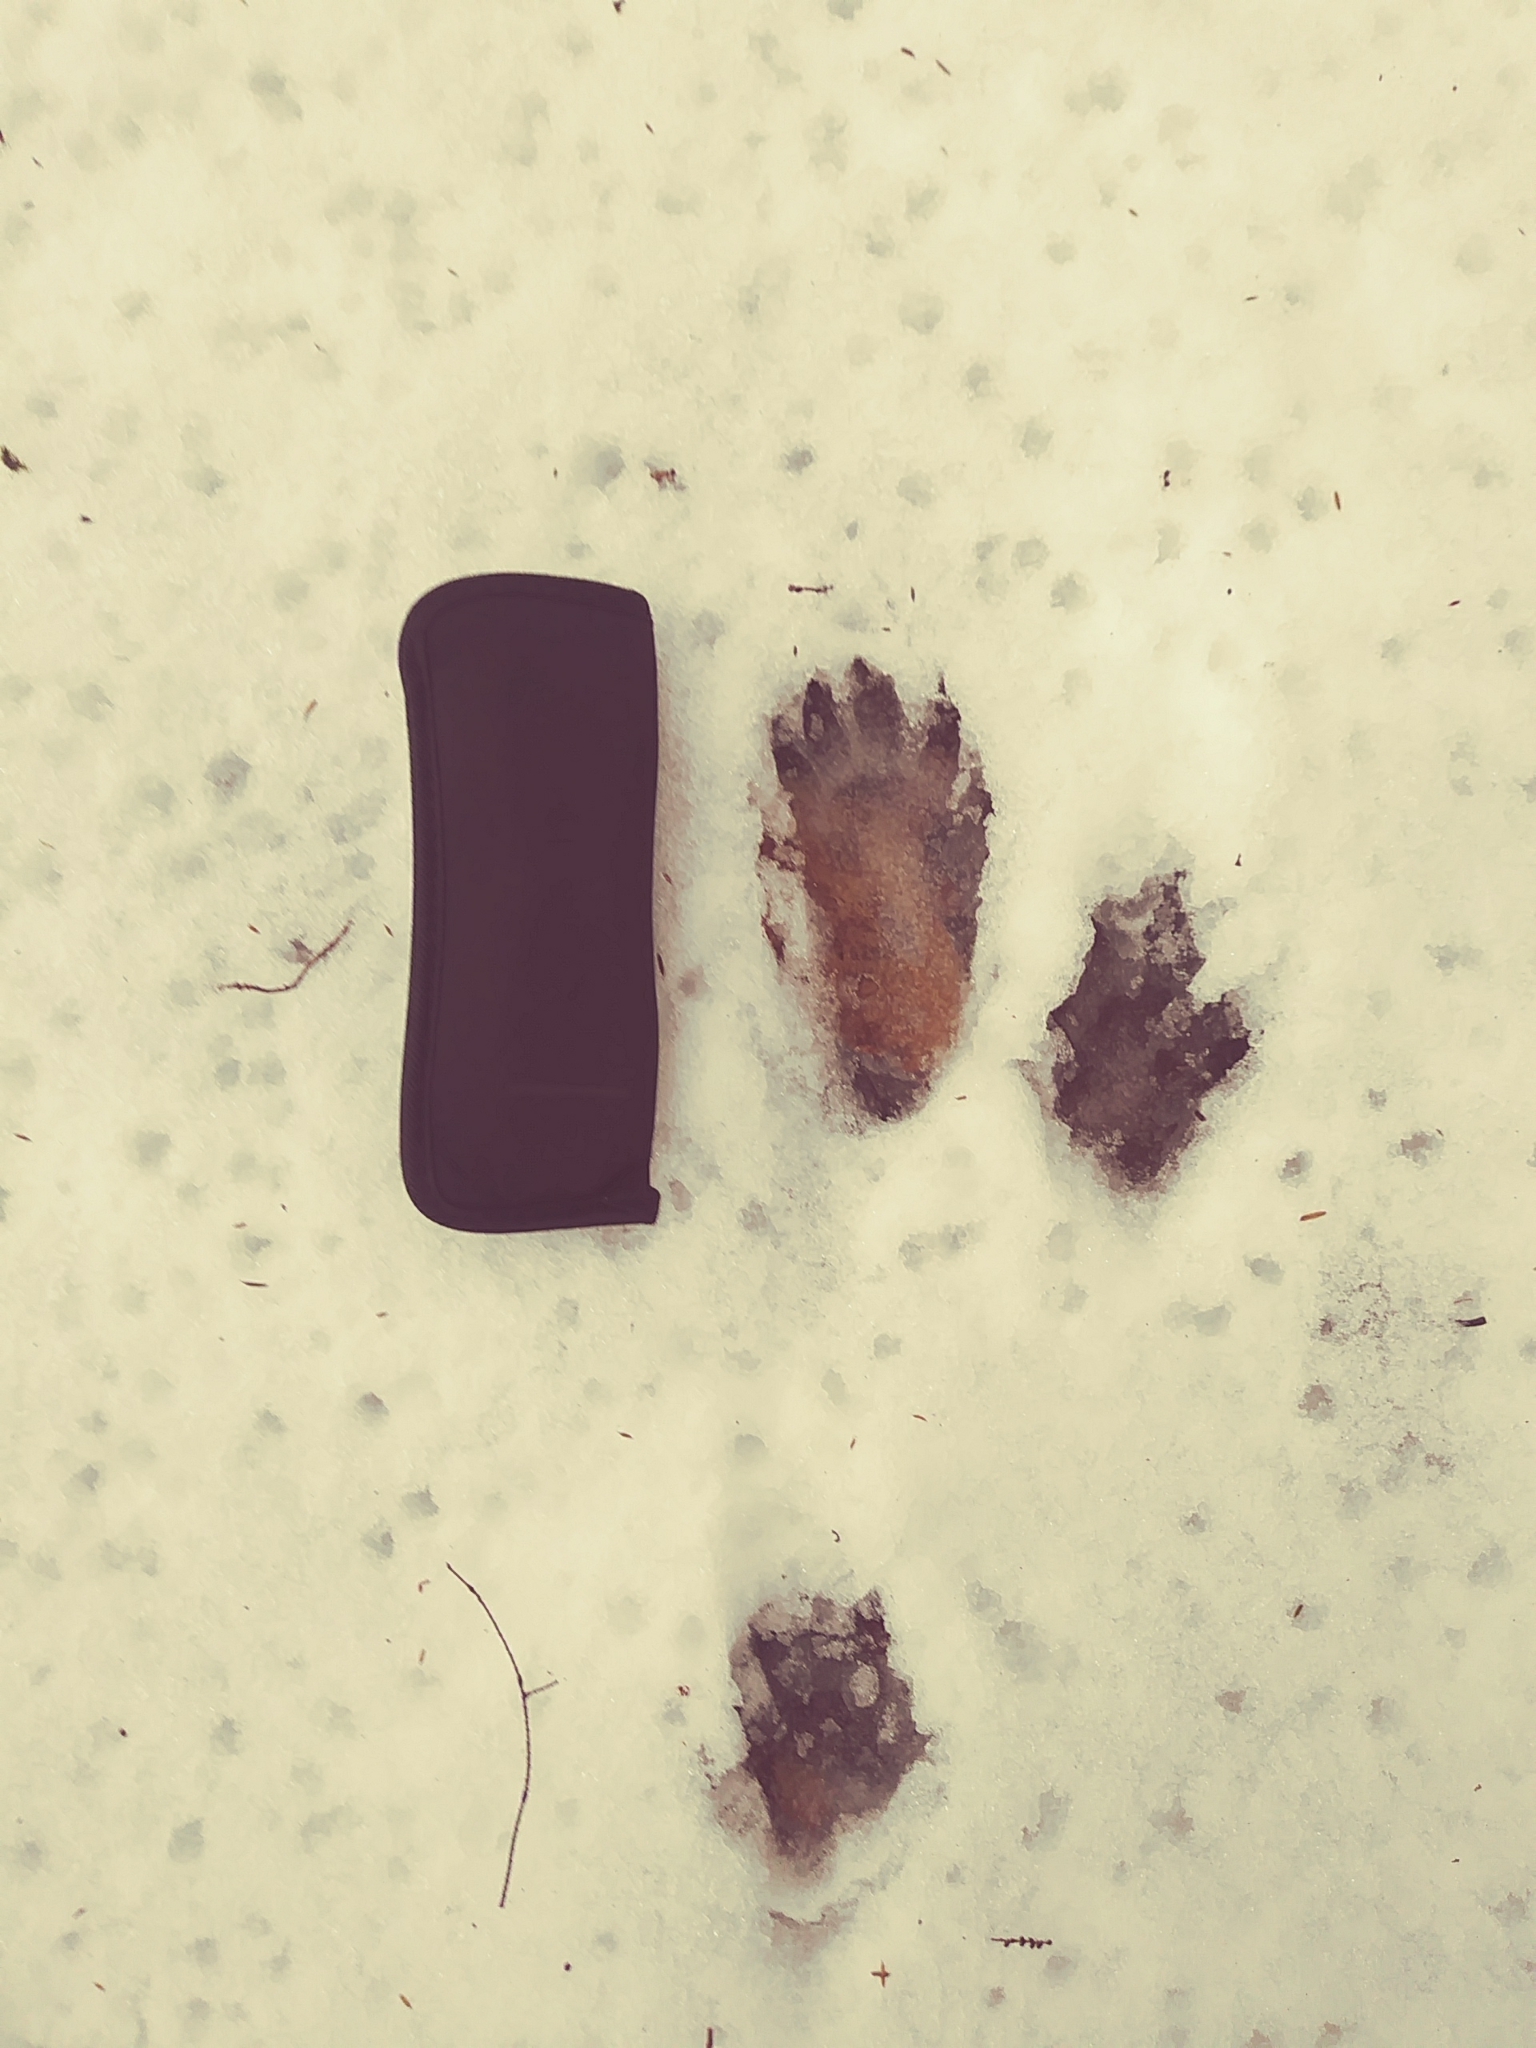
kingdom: Animalia
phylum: Chordata
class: Mammalia
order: Carnivora
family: Procyonidae
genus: Procyon
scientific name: Procyon lotor
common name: Raccoon
